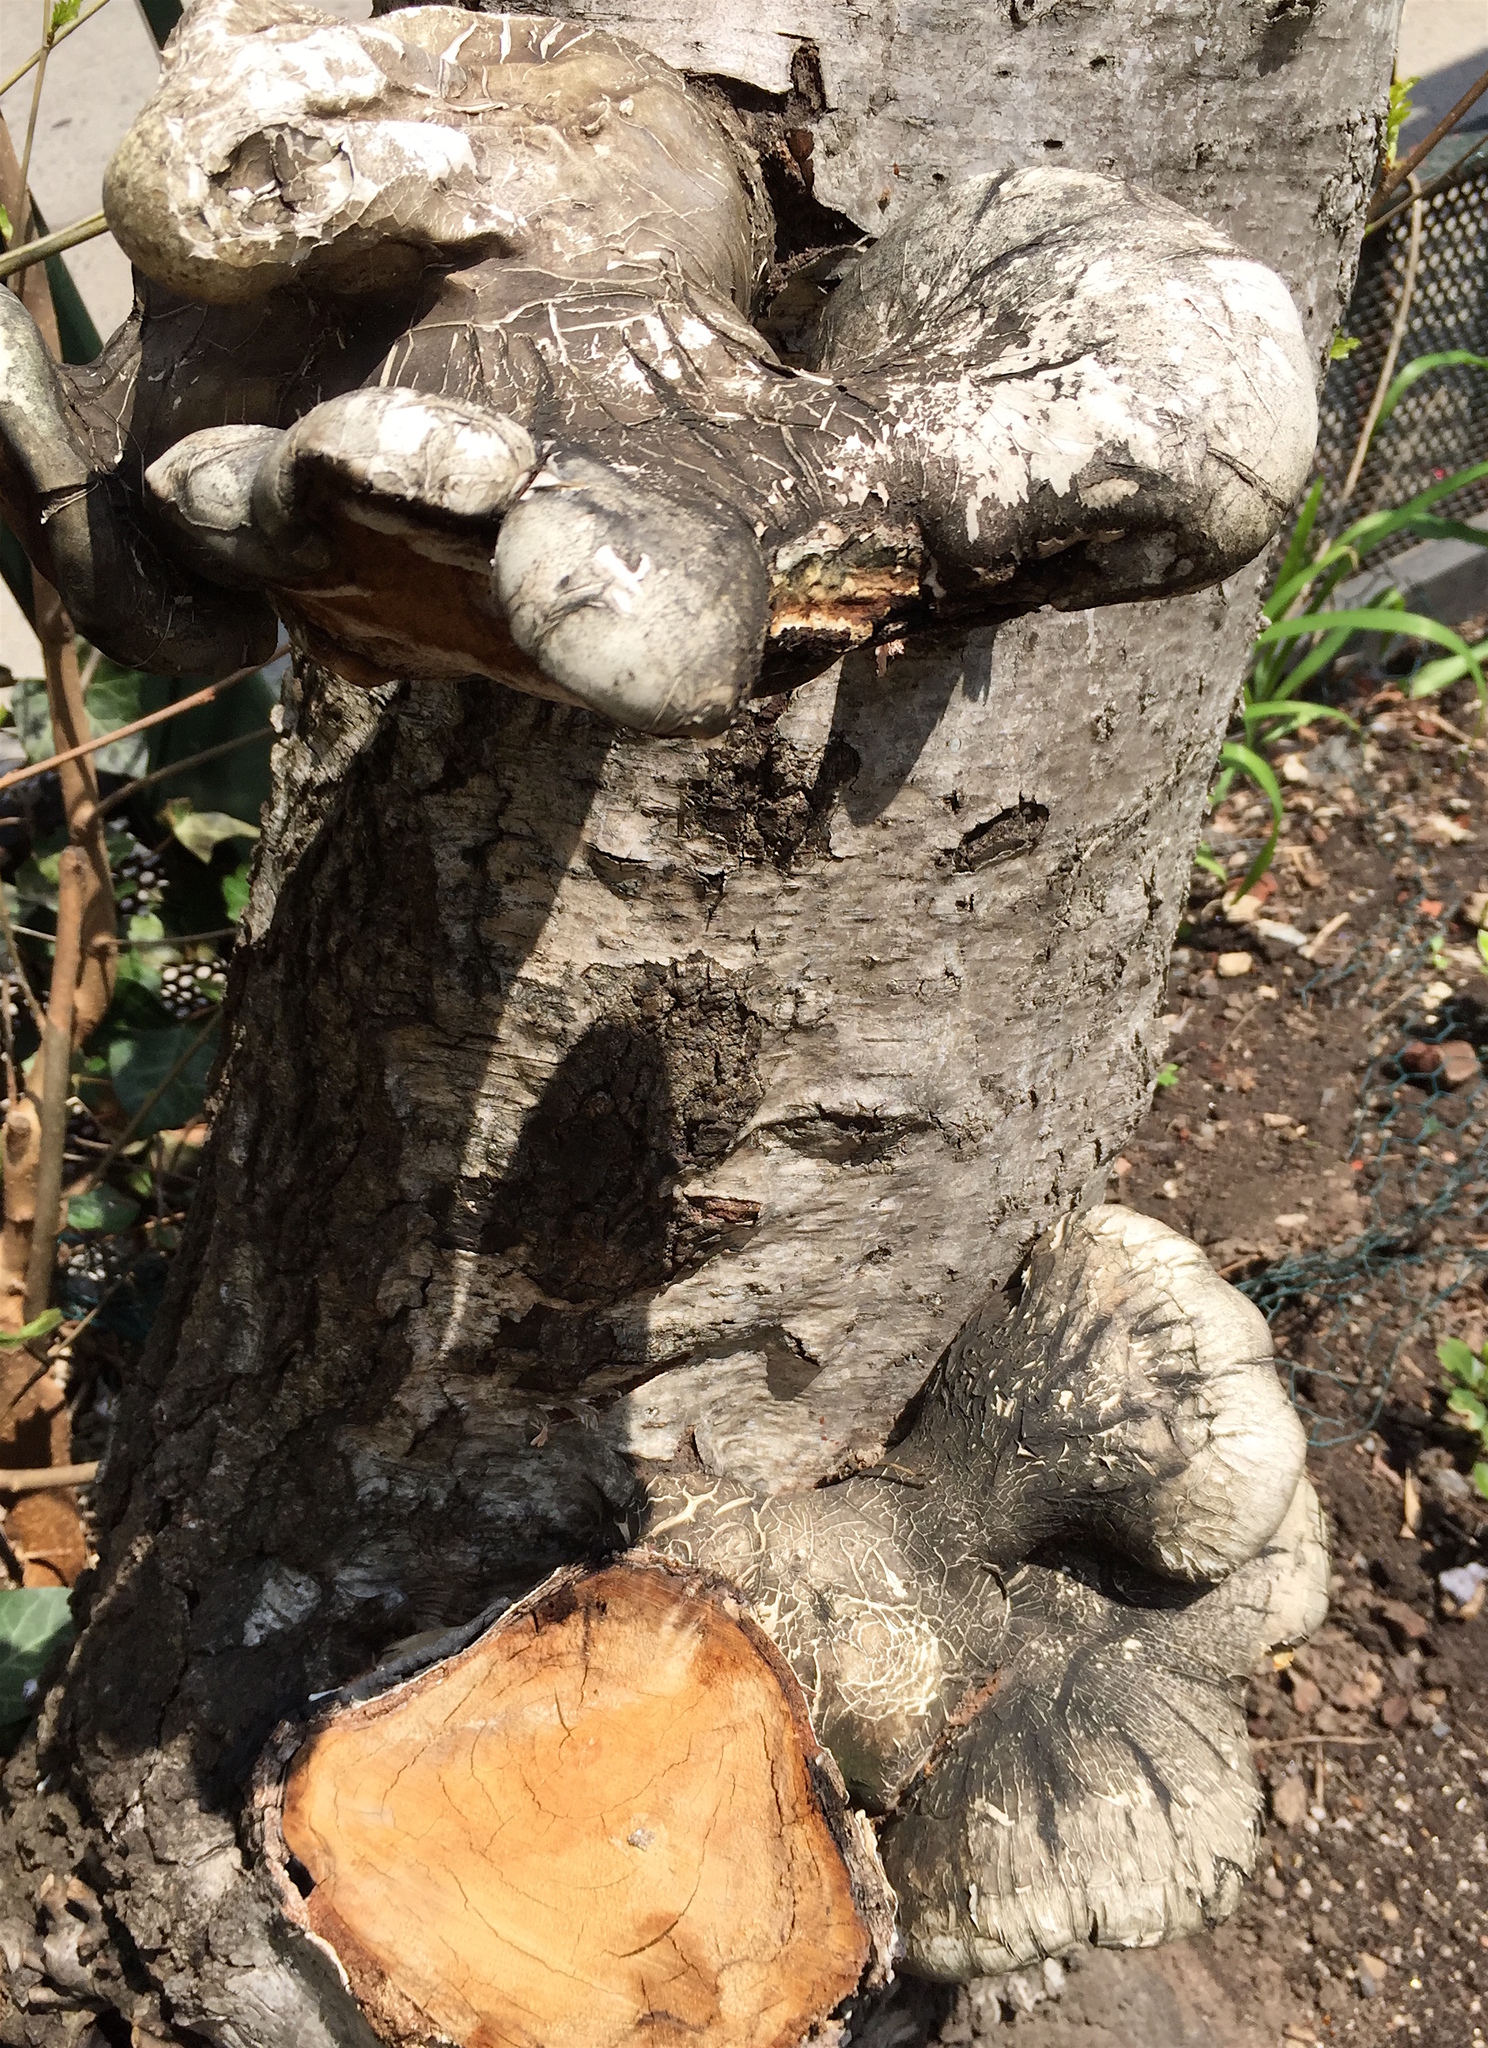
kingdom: Fungi
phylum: Basidiomycota
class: Agaricomycetes
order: Polyporales
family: Fomitopsidaceae
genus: Fomitopsis
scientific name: Fomitopsis betulina
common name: Birch polypore
